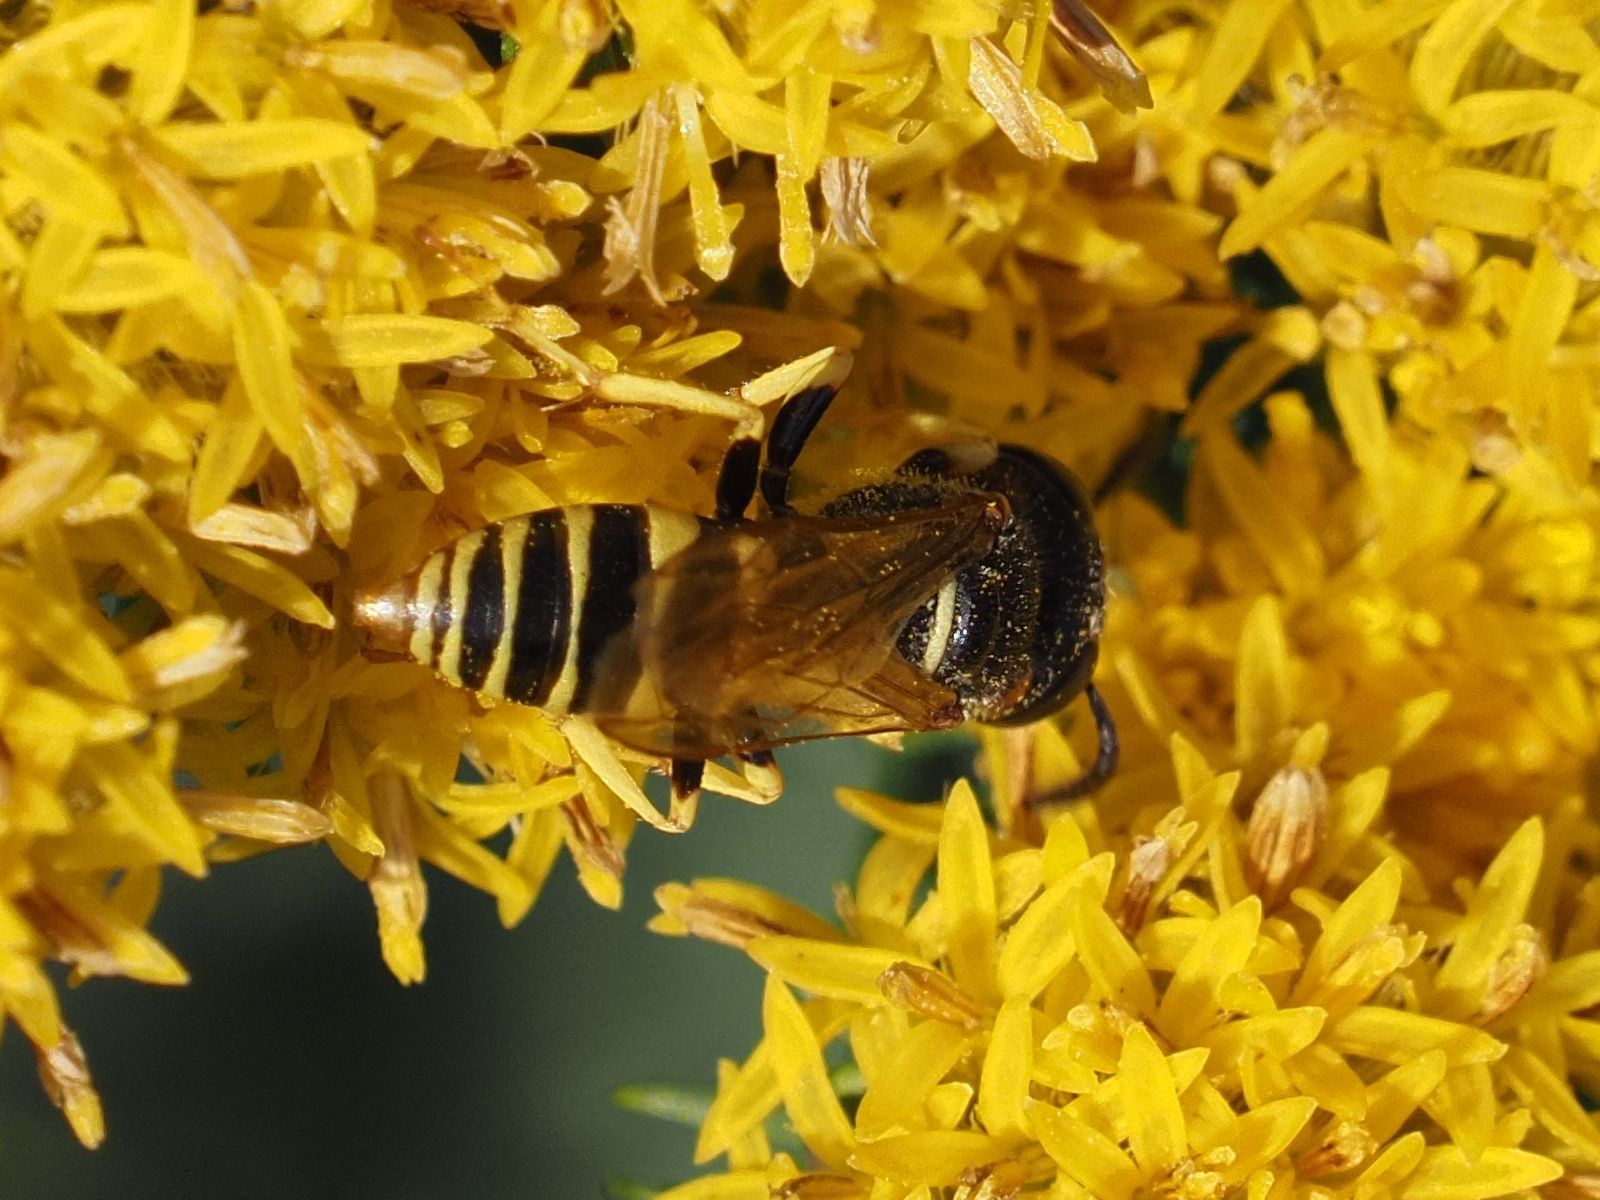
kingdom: Animalia
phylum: Arthropoda
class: Insecta
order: Hymenoptera
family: Crabronidae
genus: Philanthus
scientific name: Philanthus triangulum
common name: Bee wolf
